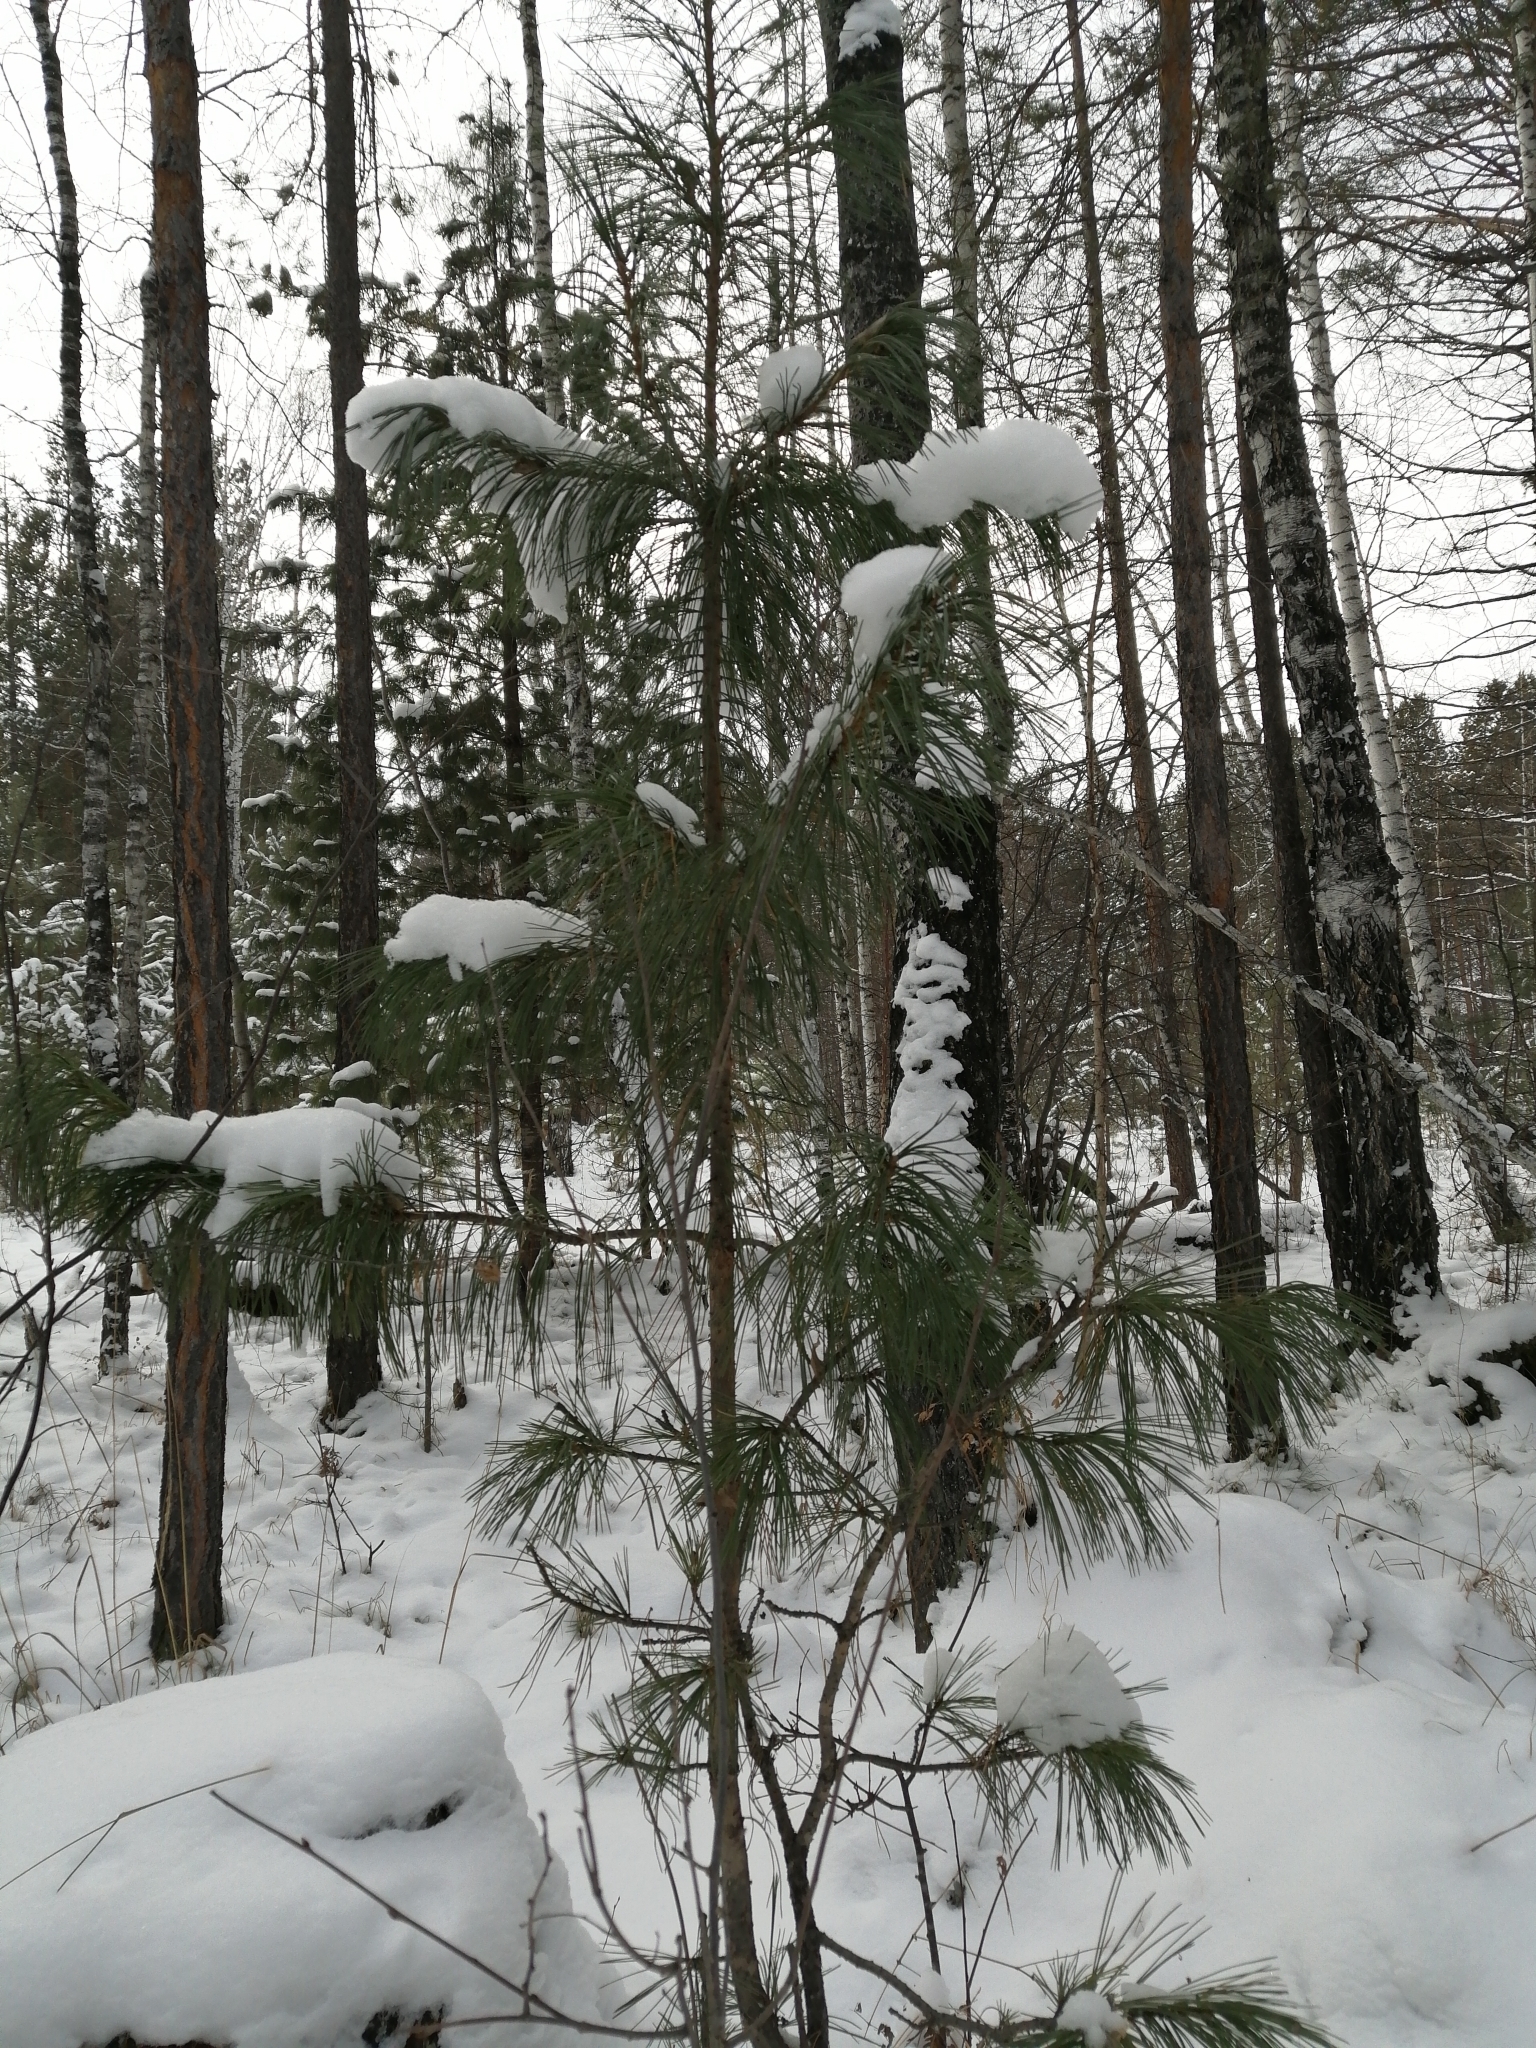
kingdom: Plantae
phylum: Tracheophyta
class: Pinopsida
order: Pinales
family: Pinaceae
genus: Pinus
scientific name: Pinus sibirica
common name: Siberian pine
